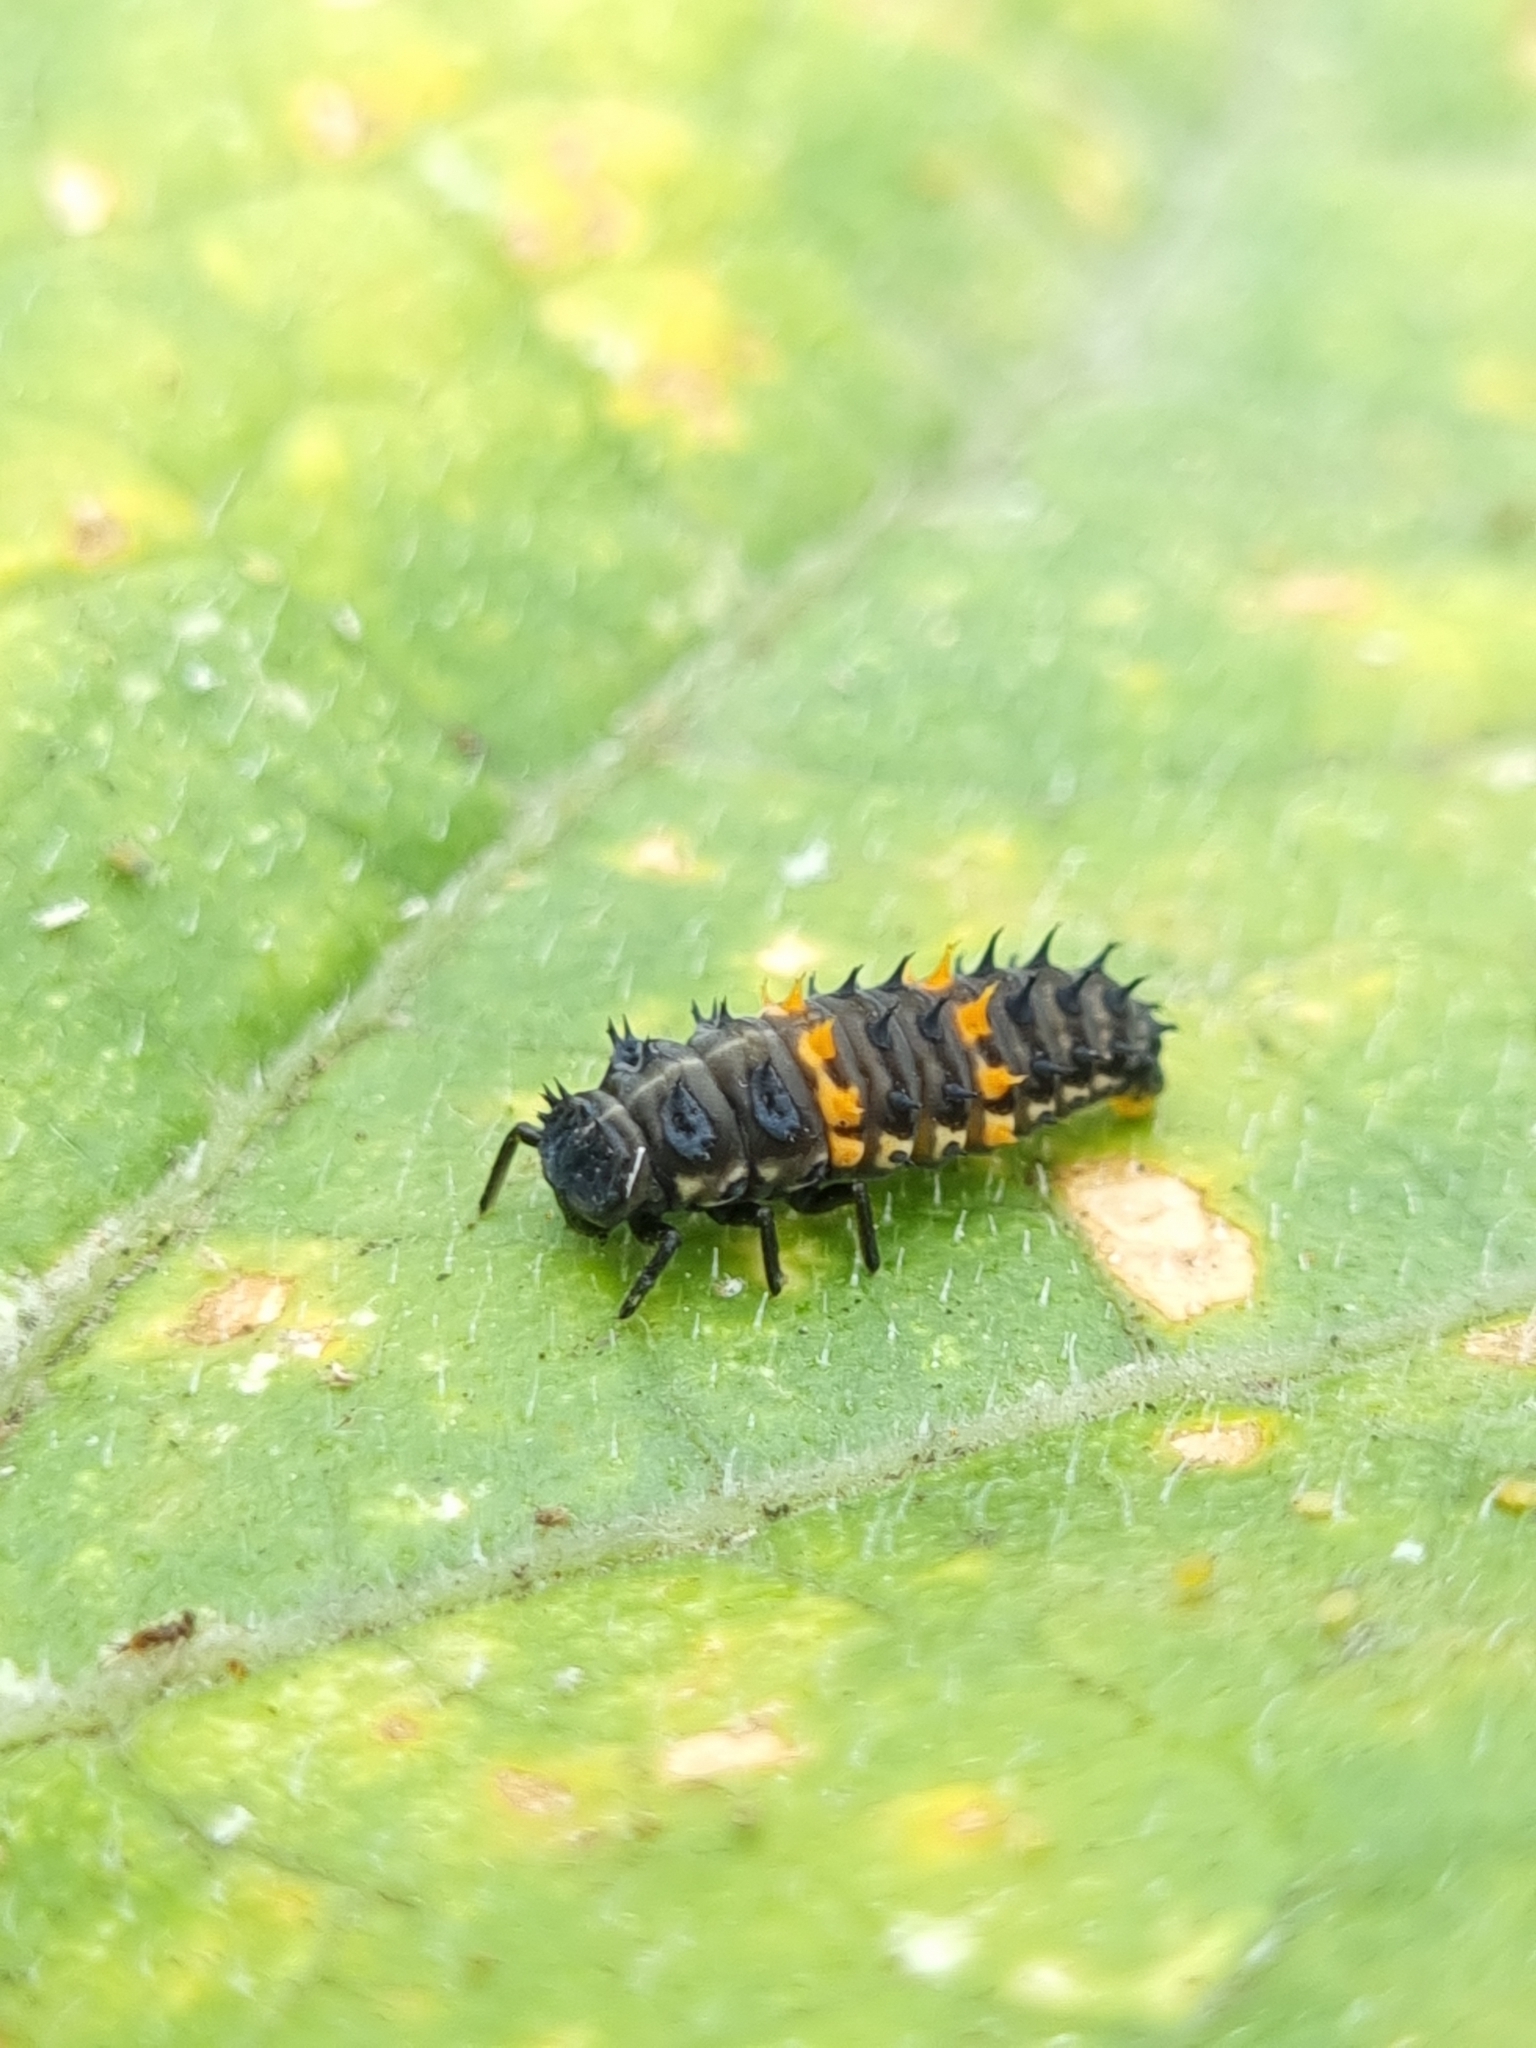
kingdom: Animalia
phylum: Arthropoda
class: Insecta
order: Coleoptera
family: Coccinellidae
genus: Harmonia
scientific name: Harmonia conformis
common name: Common spotted ladybird beetle
